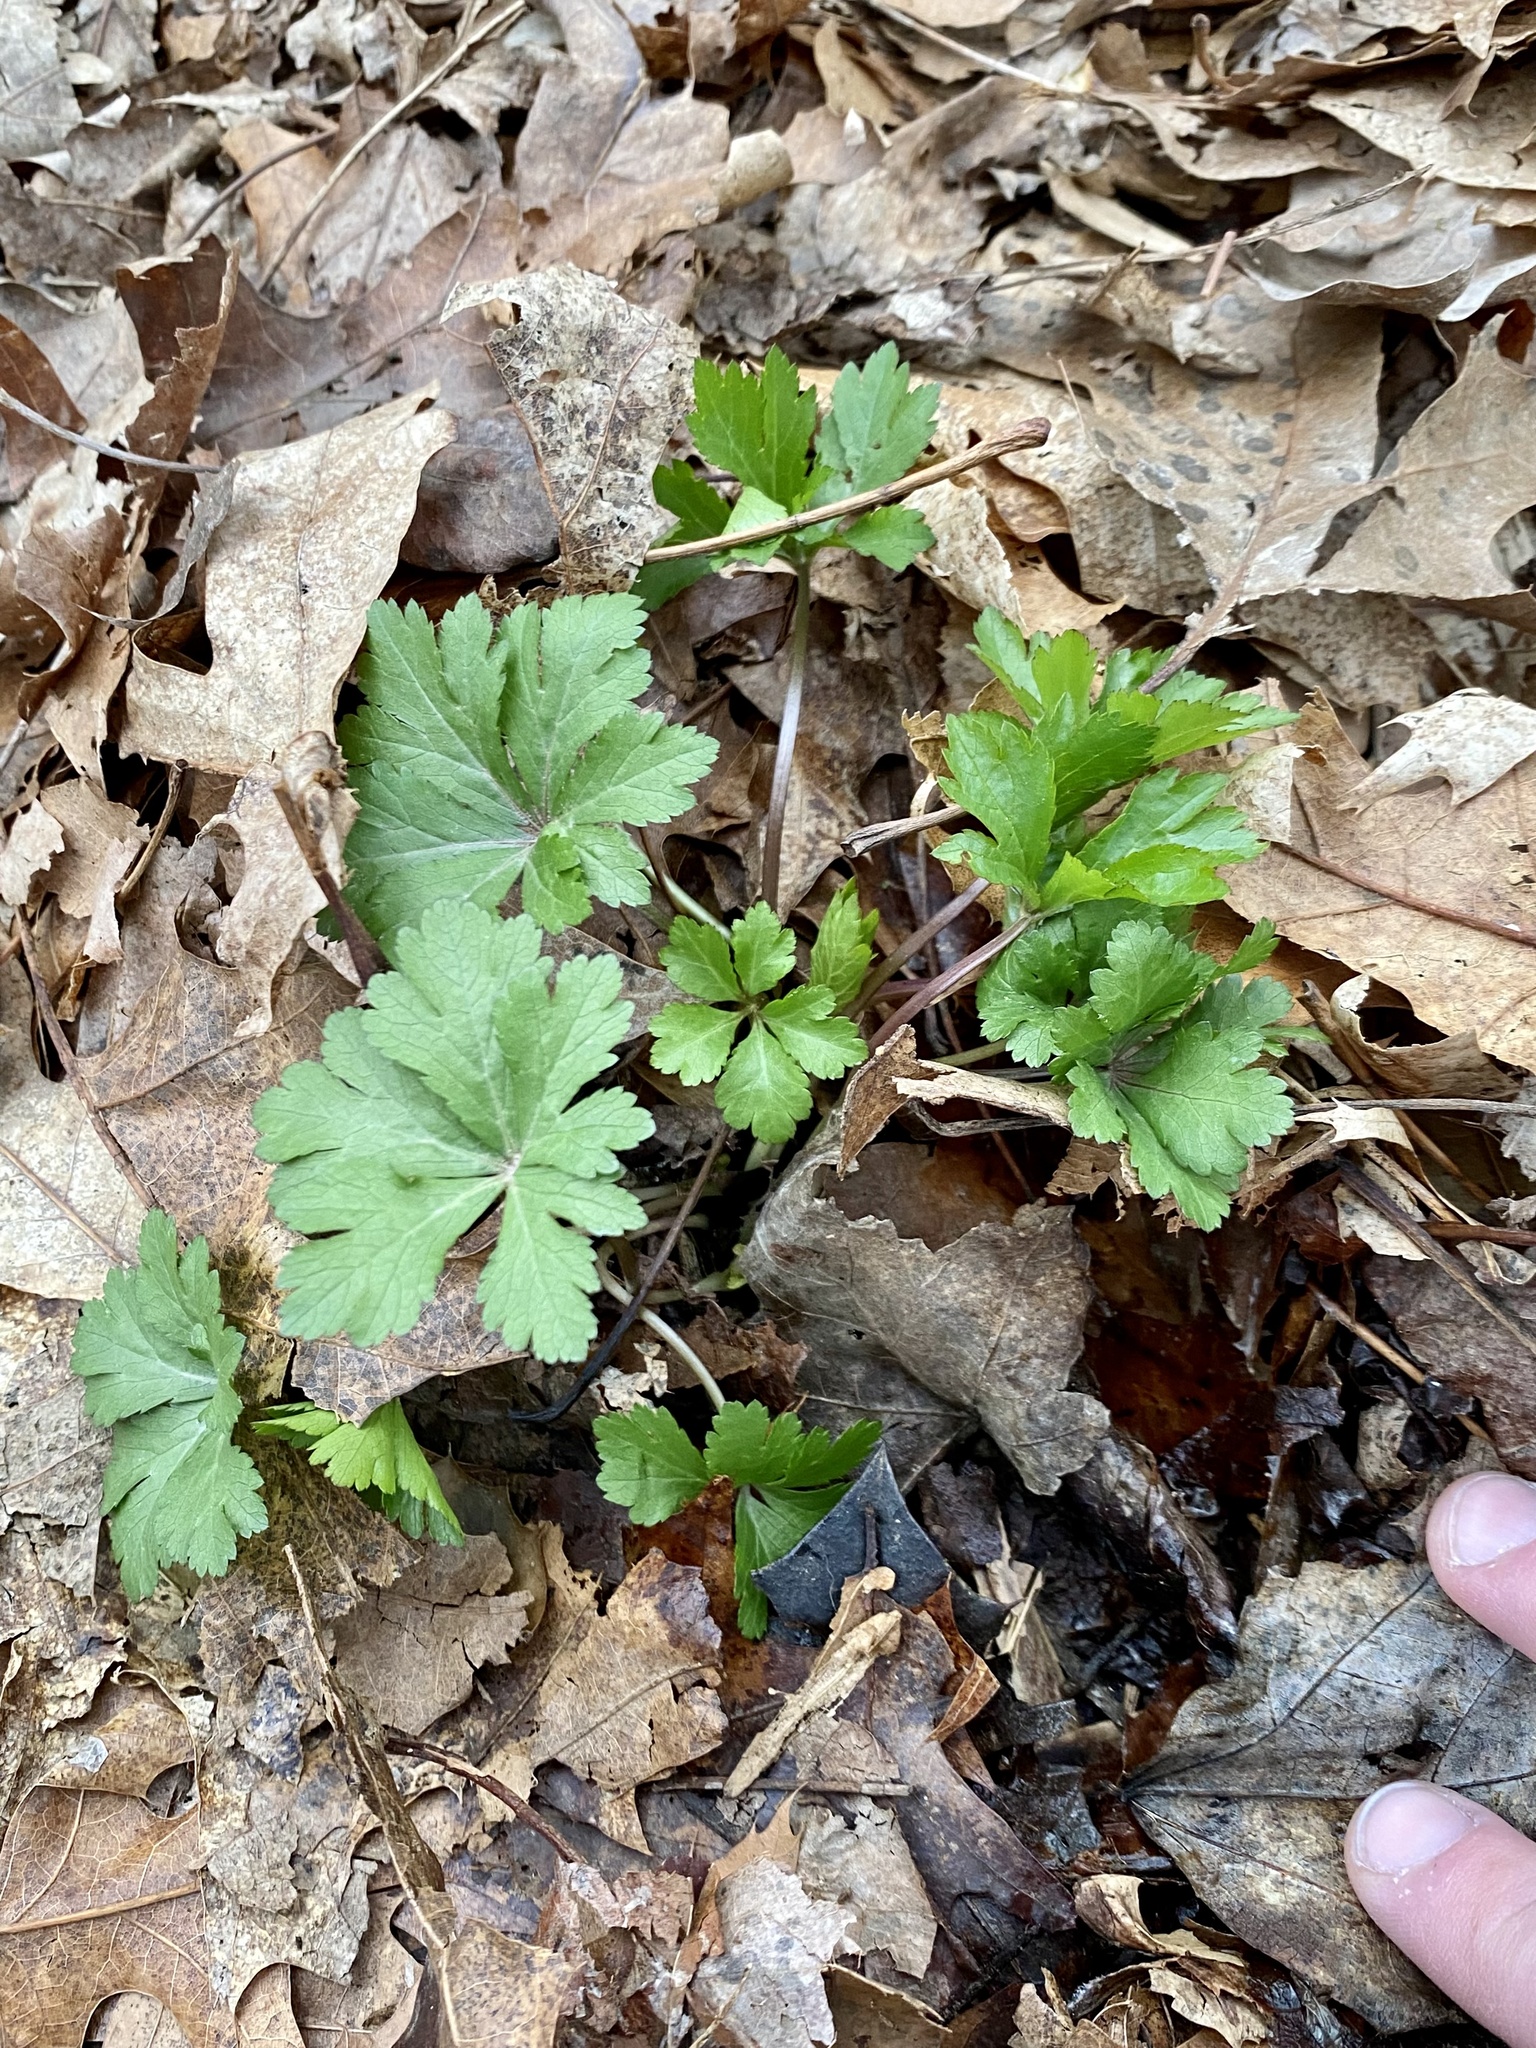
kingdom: Plantae
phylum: Tracheophyta
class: Magnoliopsida
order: Apiales
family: Apiaceae
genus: Sanicula
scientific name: Sanicula odorata
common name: Cluster sanicle
